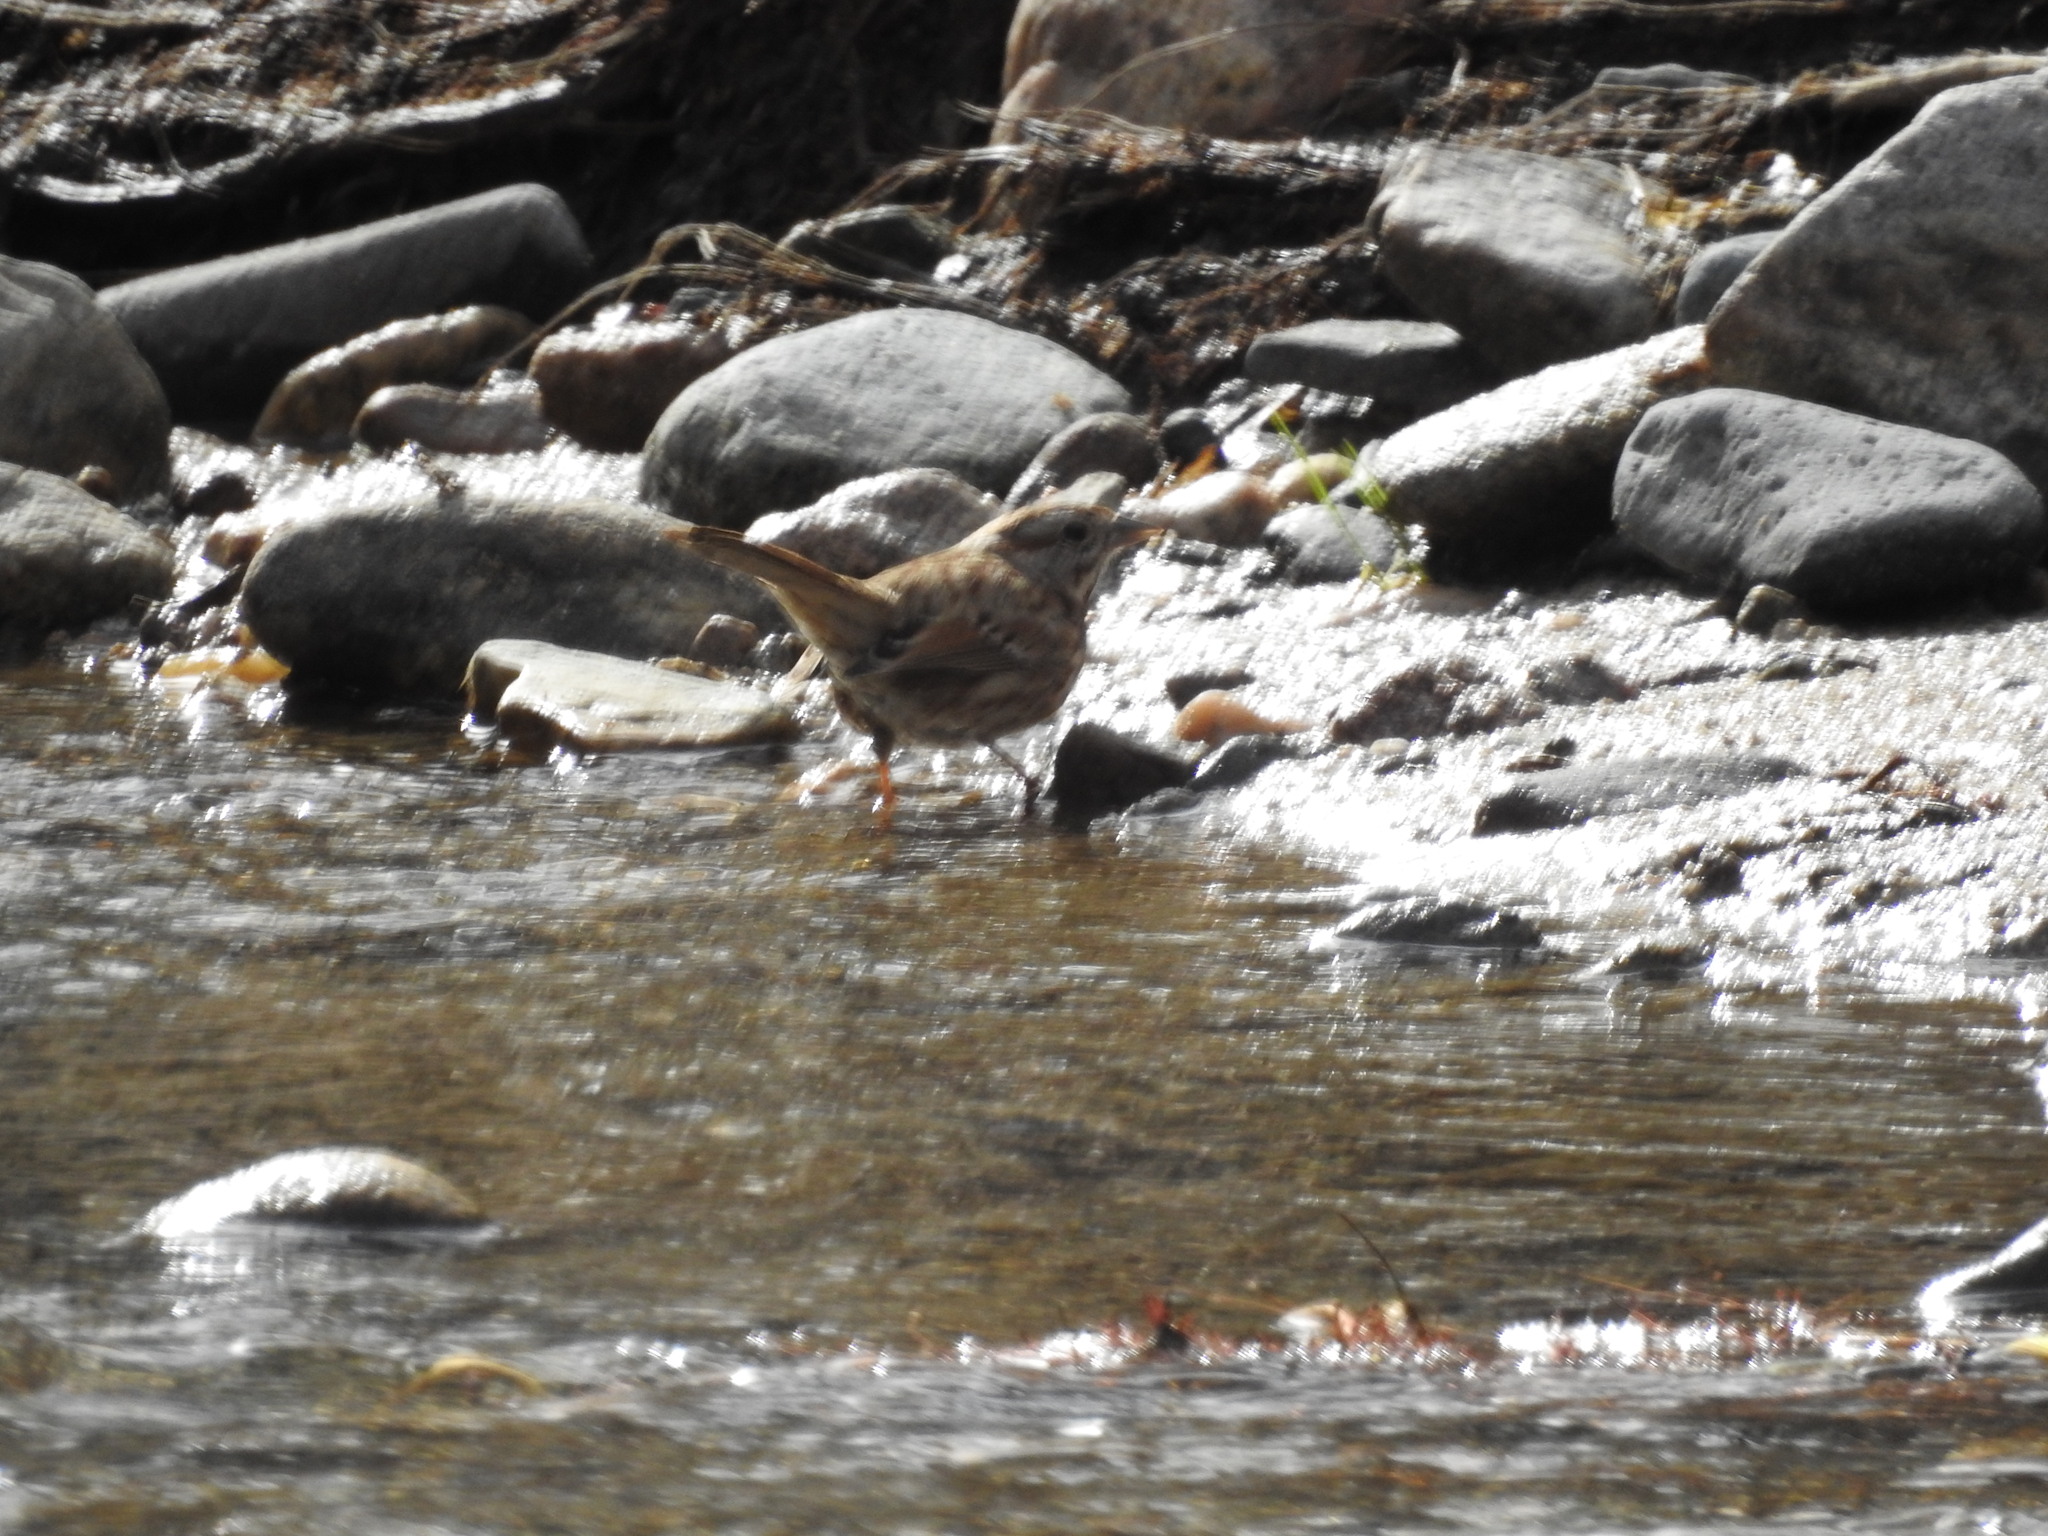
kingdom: Animalia
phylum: Chordata
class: Aves
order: Passeriformes
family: Passerellidae
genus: Melospiza
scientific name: Melospiza melodia
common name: Song sparrow
